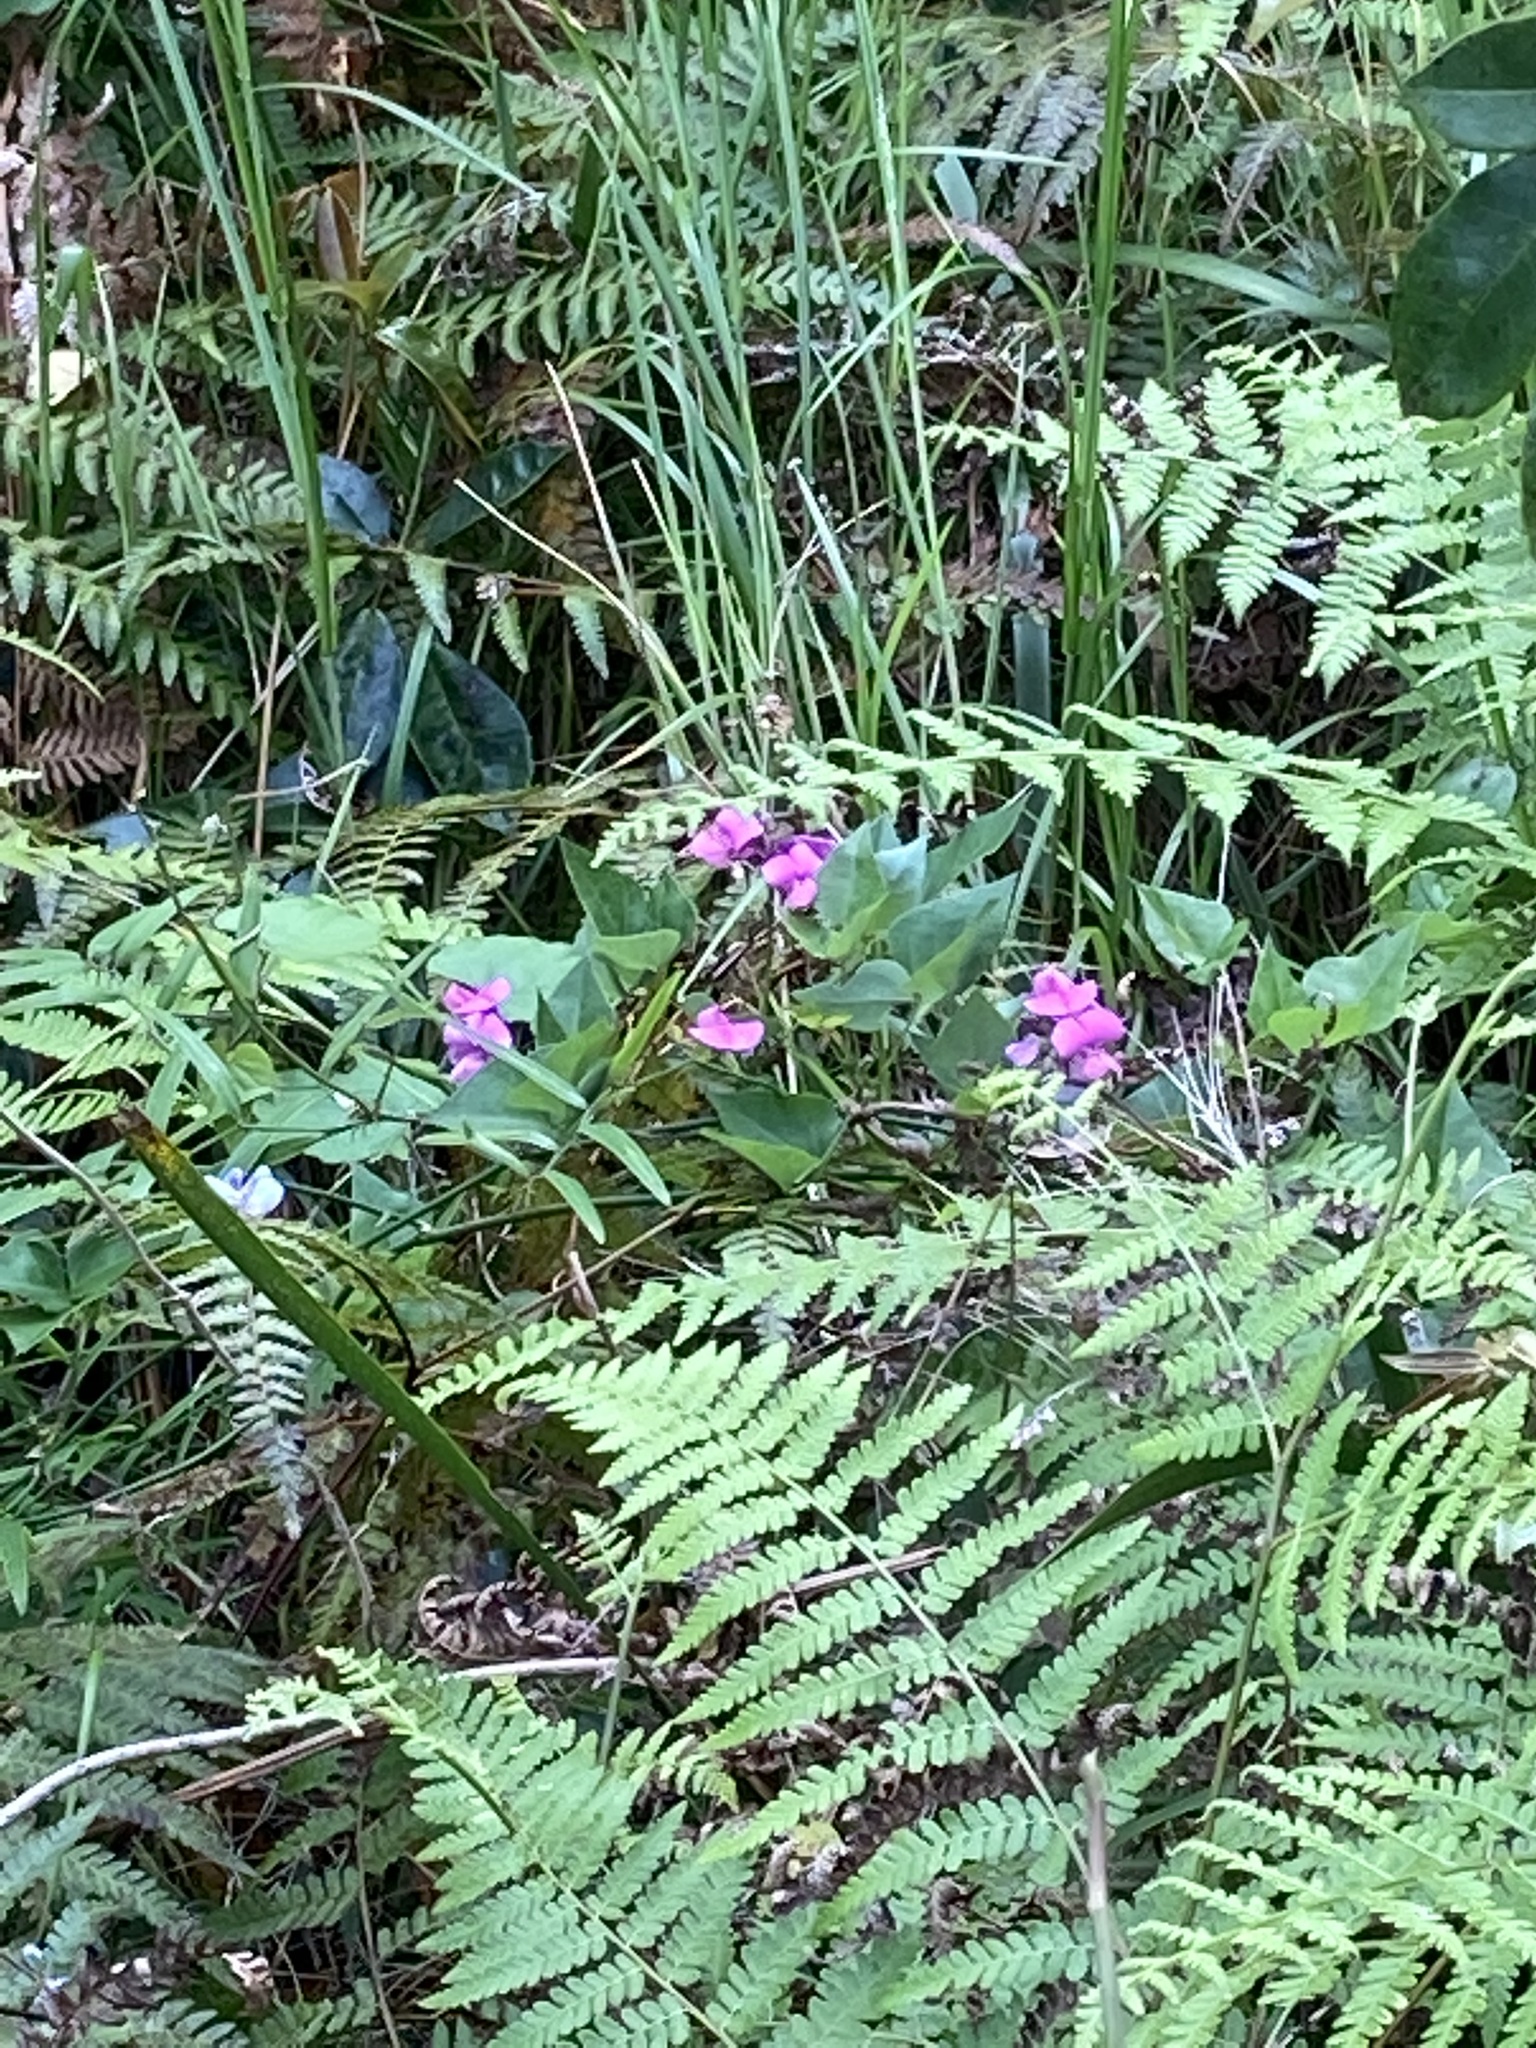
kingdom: Plantae
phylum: Tracheophyta
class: Magnoliopsida
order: Fabales
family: Fabaceae
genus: Dipogon
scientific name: Dipogon lignosus
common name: Okie bean
